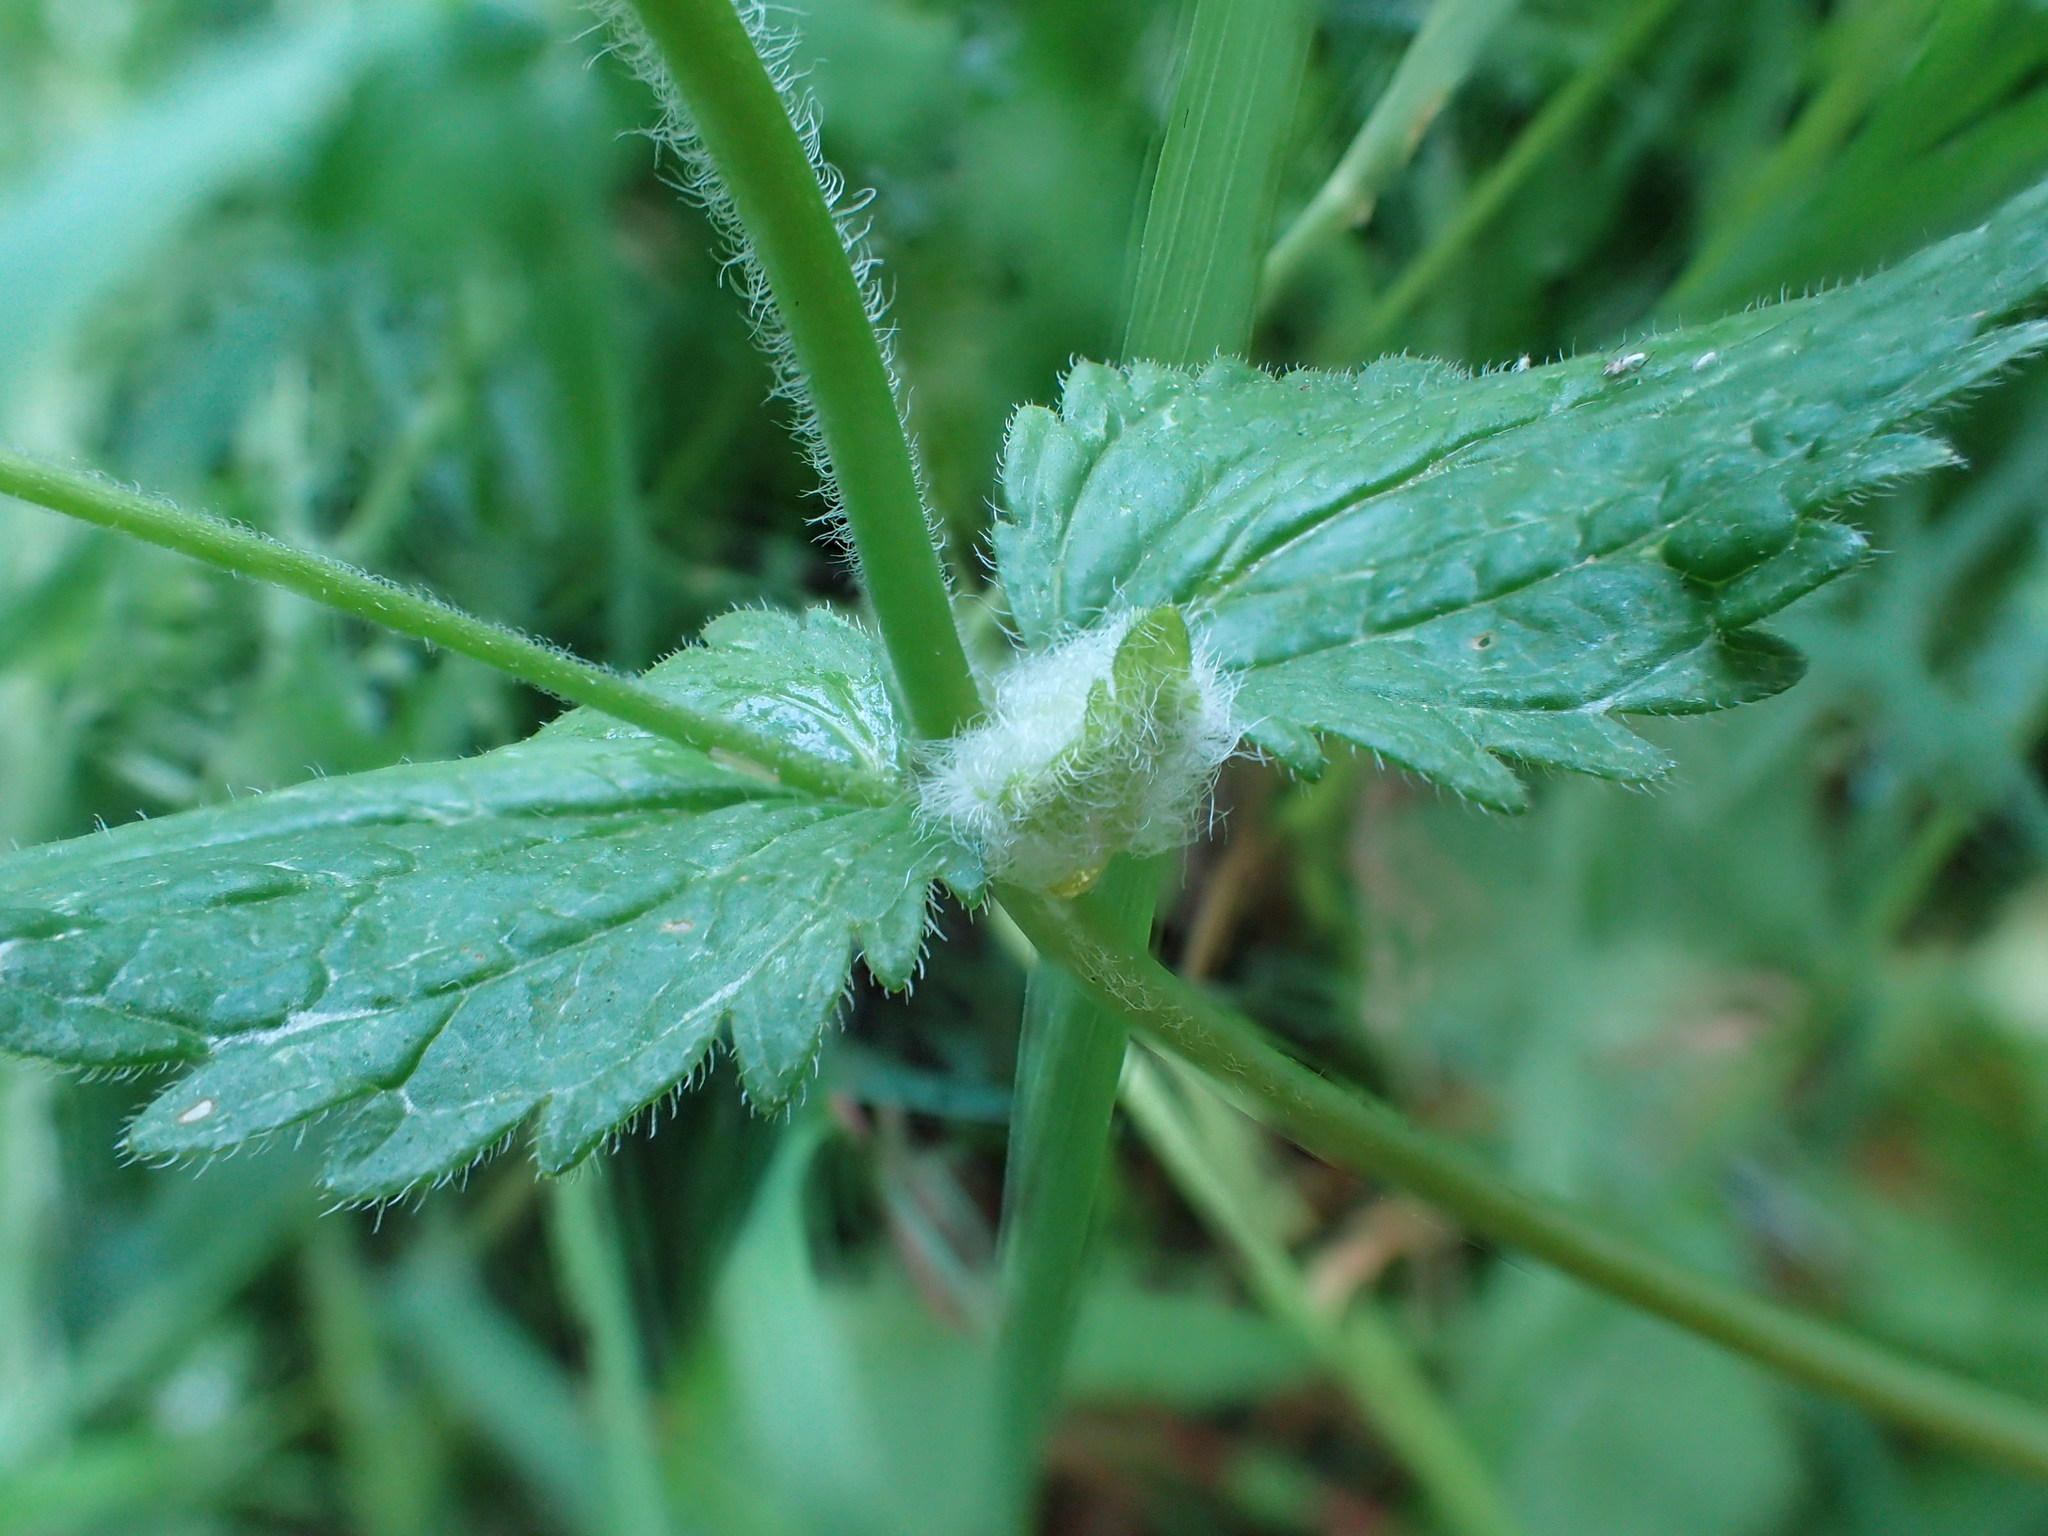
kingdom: Animalia
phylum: Arthropoda
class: Insecta
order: Diptera
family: Cecidomyiidae
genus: Jaapiella
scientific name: Jaapiella veronicae
